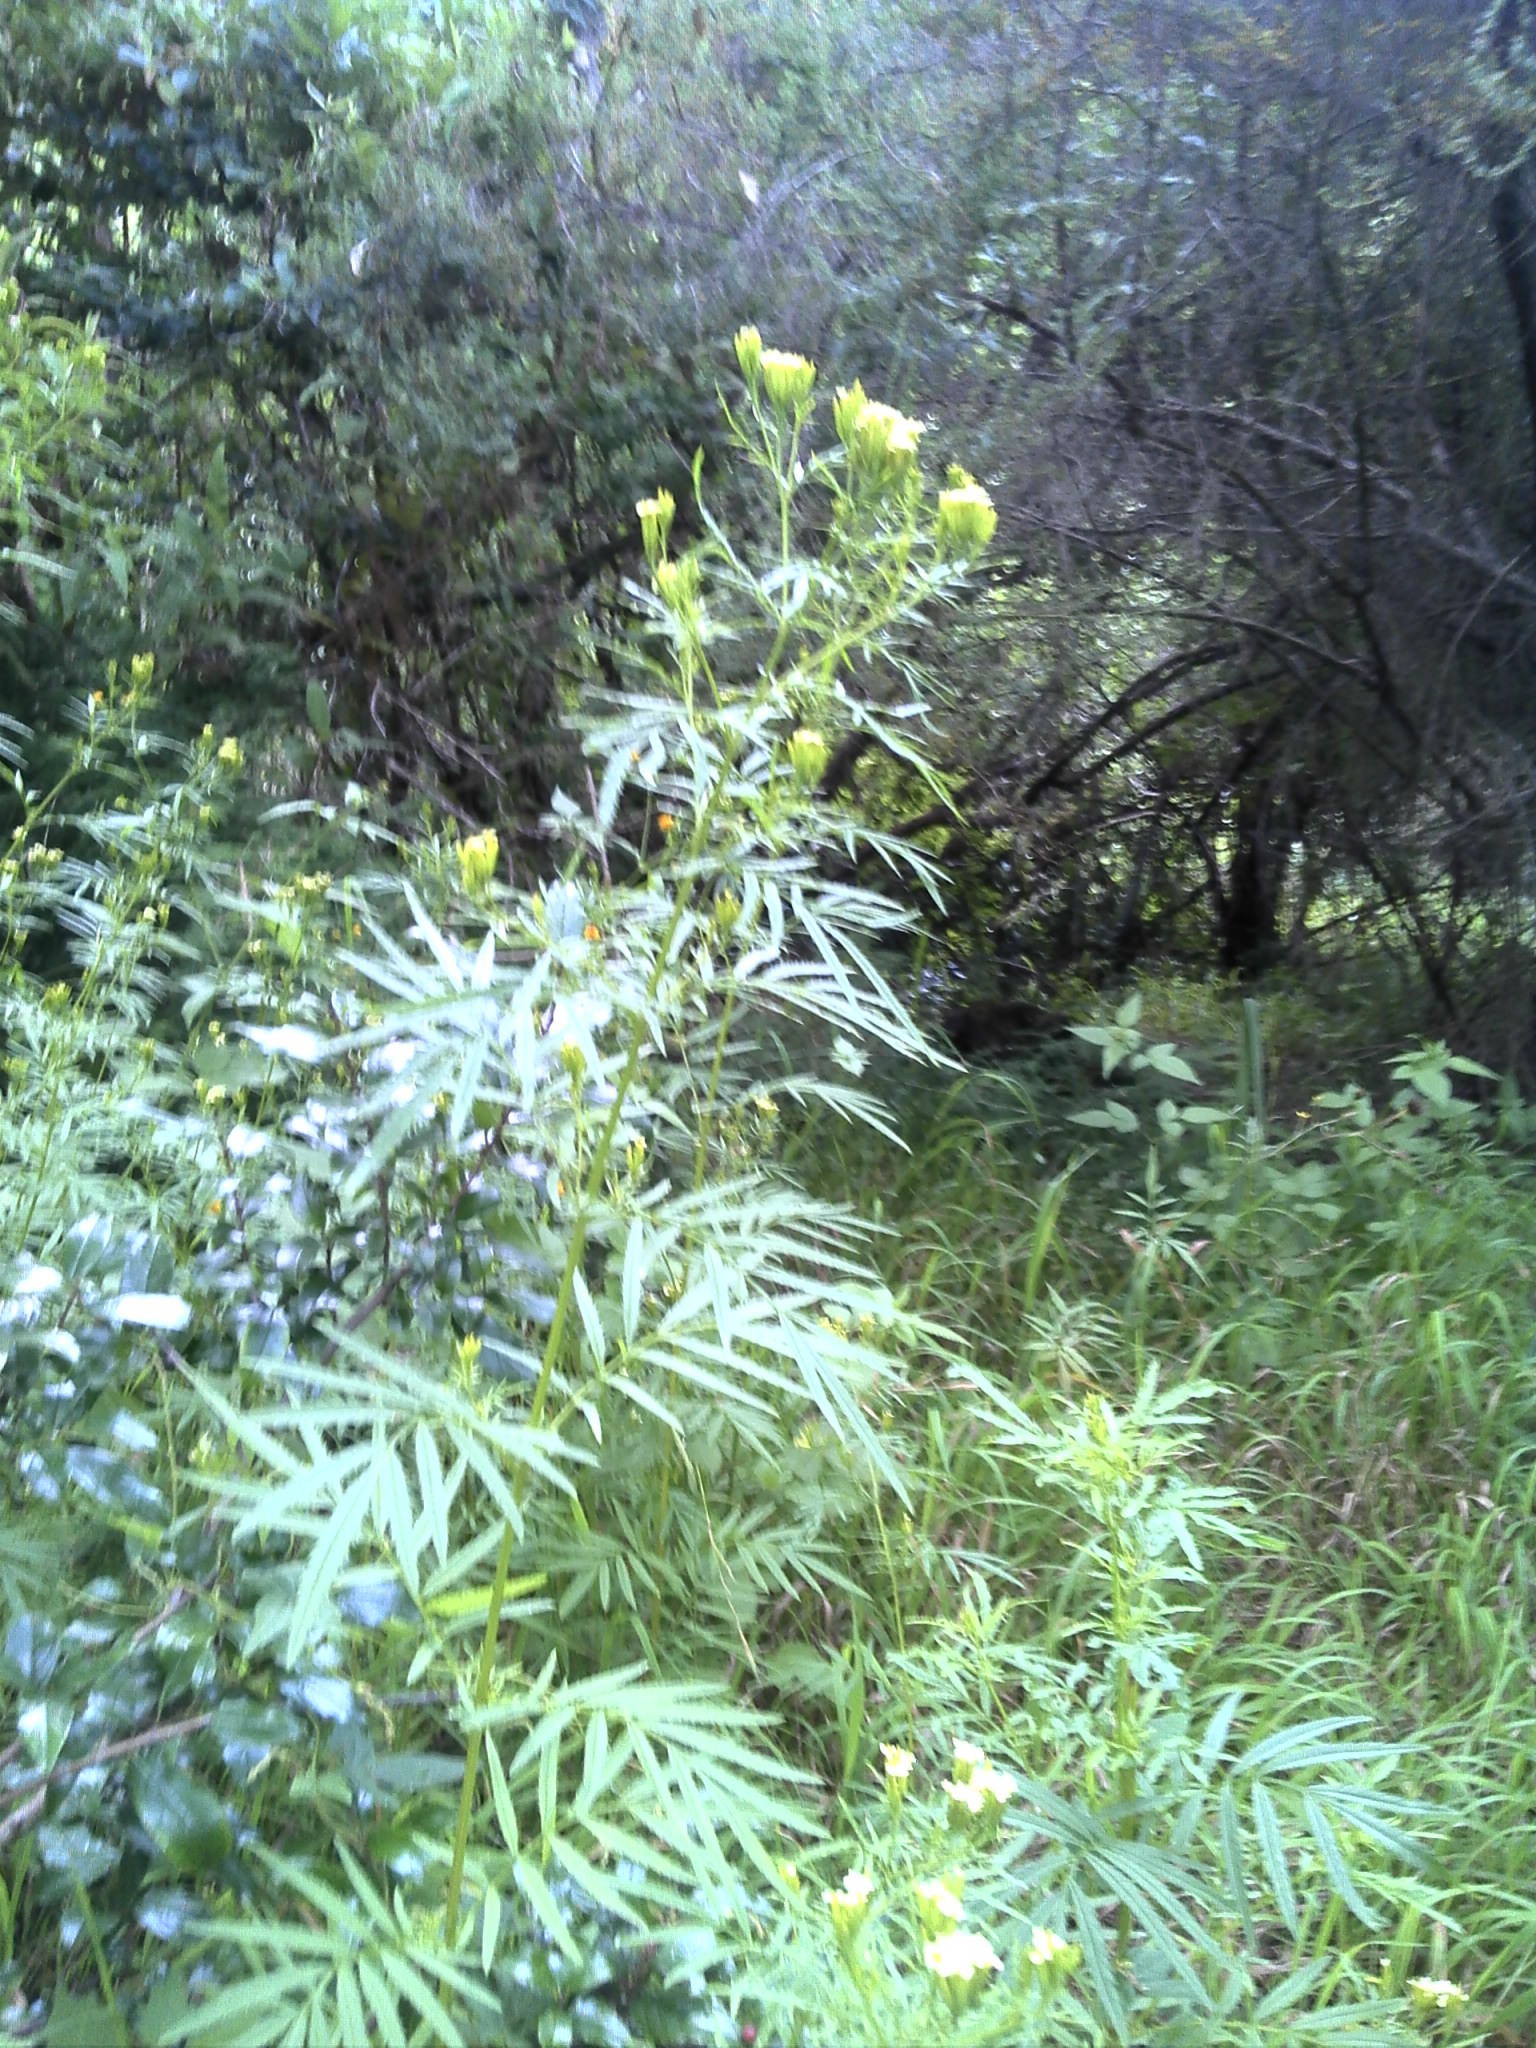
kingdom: Plantae
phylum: Tracheophyta
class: Magnoliopsida
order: Asterales
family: Asteraceae
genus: Tagetes
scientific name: Tagetes minuta
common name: Muster john henry
